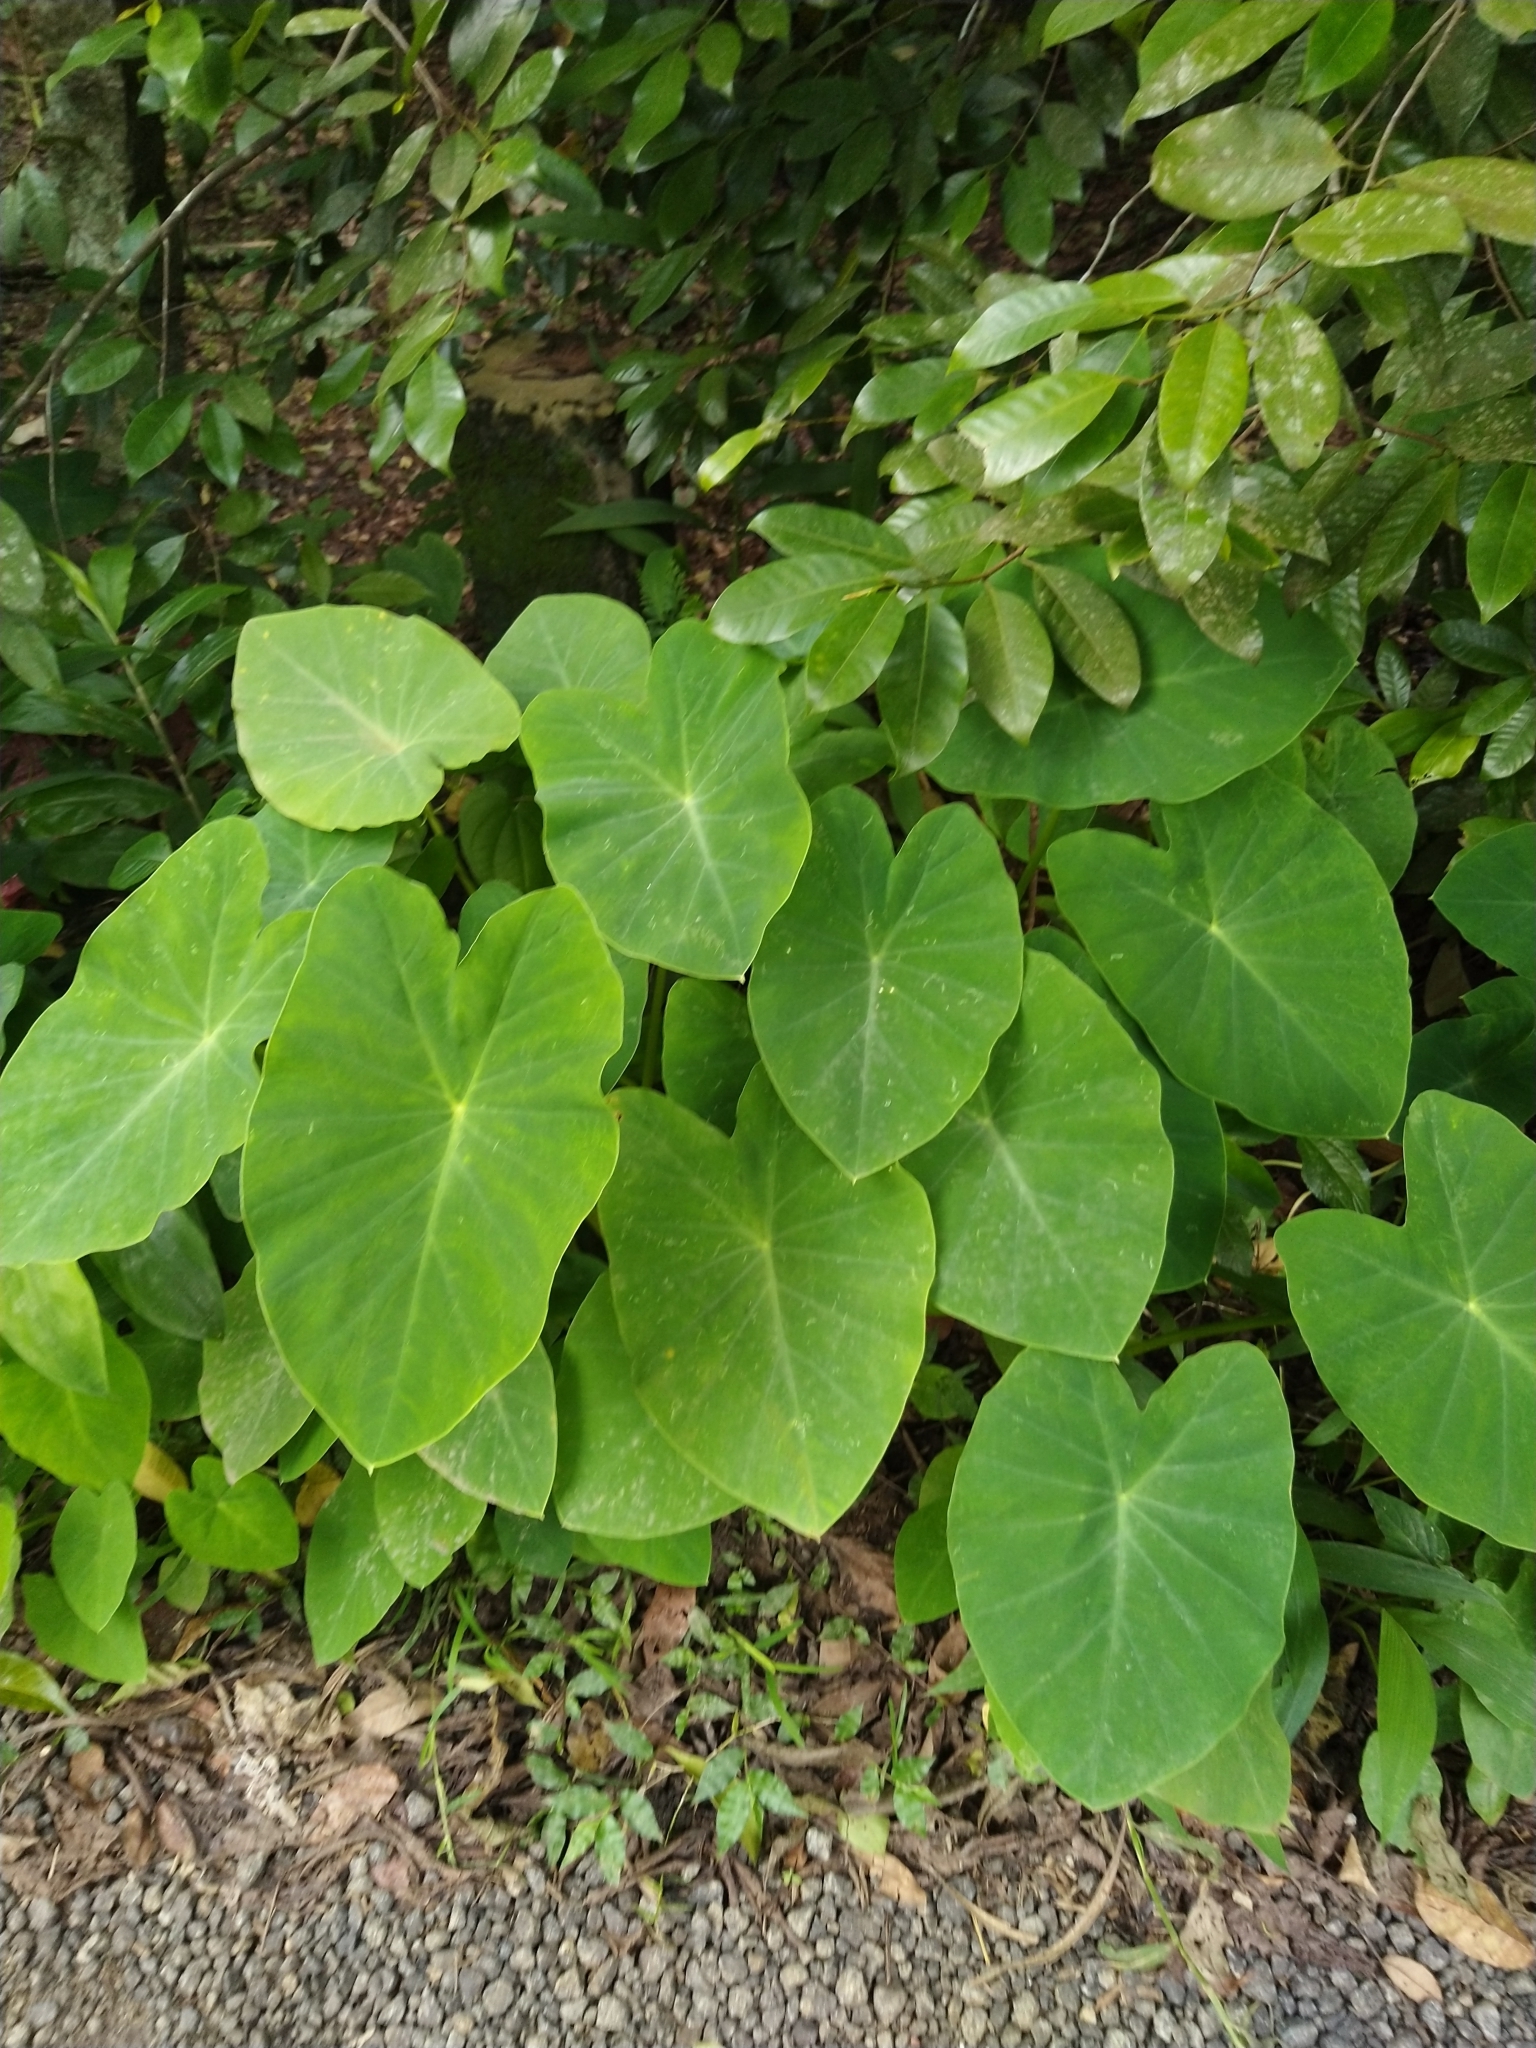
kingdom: Plantae
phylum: Tracheophyta
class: Liliopsida
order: Alismatales
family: Araceae
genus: Colocasia
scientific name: Colocasia esculenta
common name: Taro
